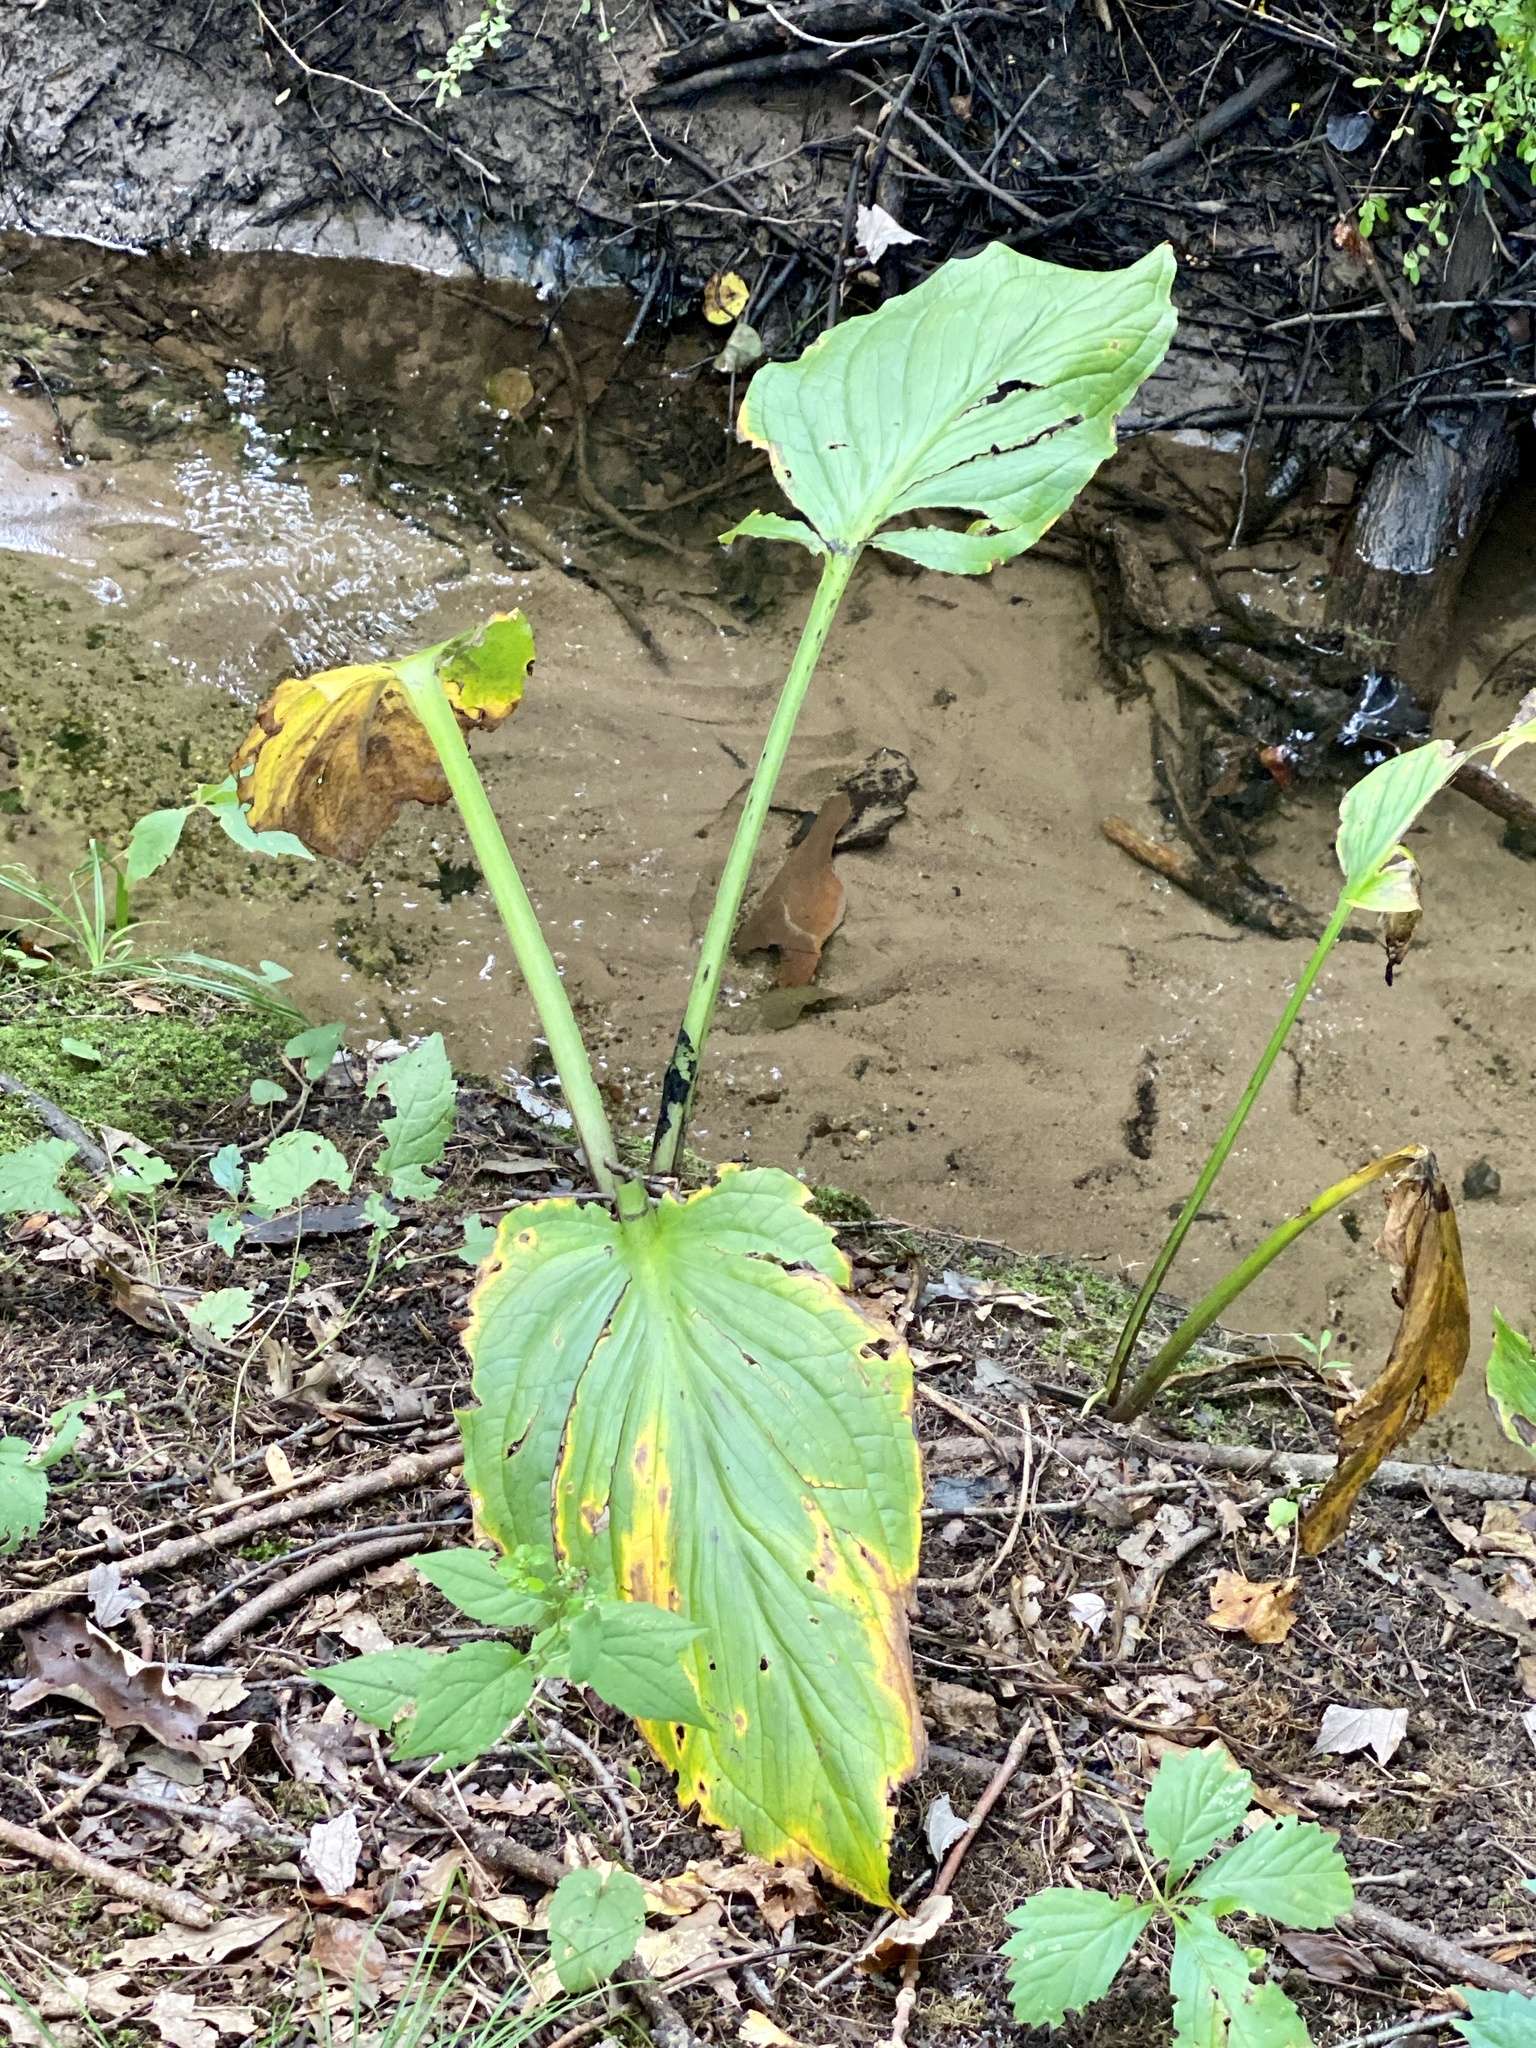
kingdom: Plantae
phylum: Tracheophyta
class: Liliopsida
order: Alismatales
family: Araceae
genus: Symplocarpus
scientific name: Symplocarpus foetidus
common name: Eastern skunk cabbage
